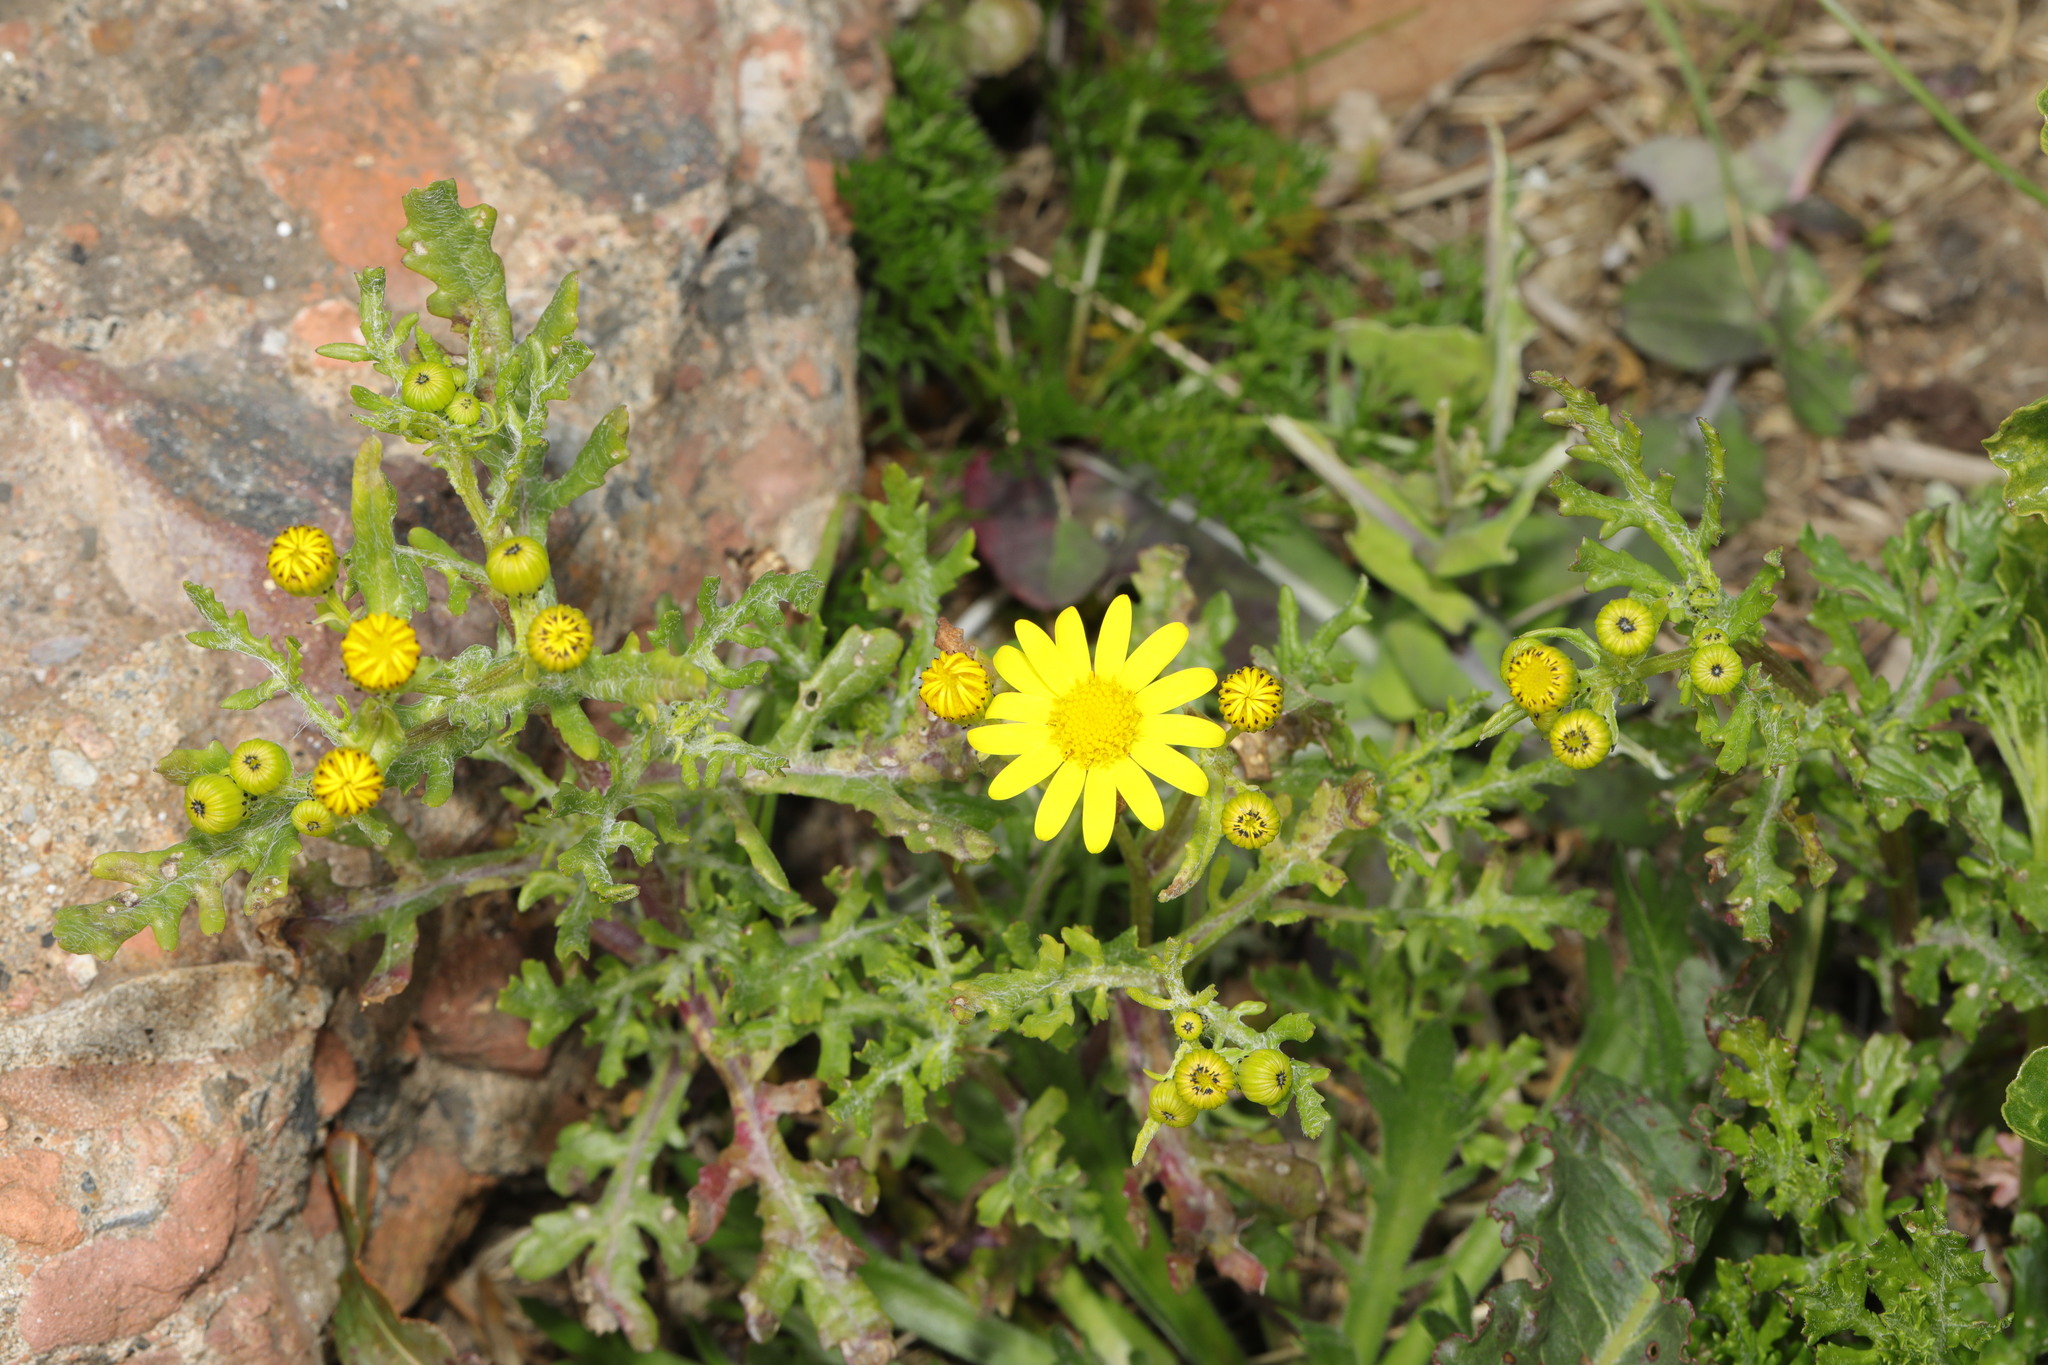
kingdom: Plantae
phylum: Tracheophyta
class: Magnoliopsida
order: Asterales
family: Asteraceae
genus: Senecio
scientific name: Senecio squalidus
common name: Oxford ragwort
